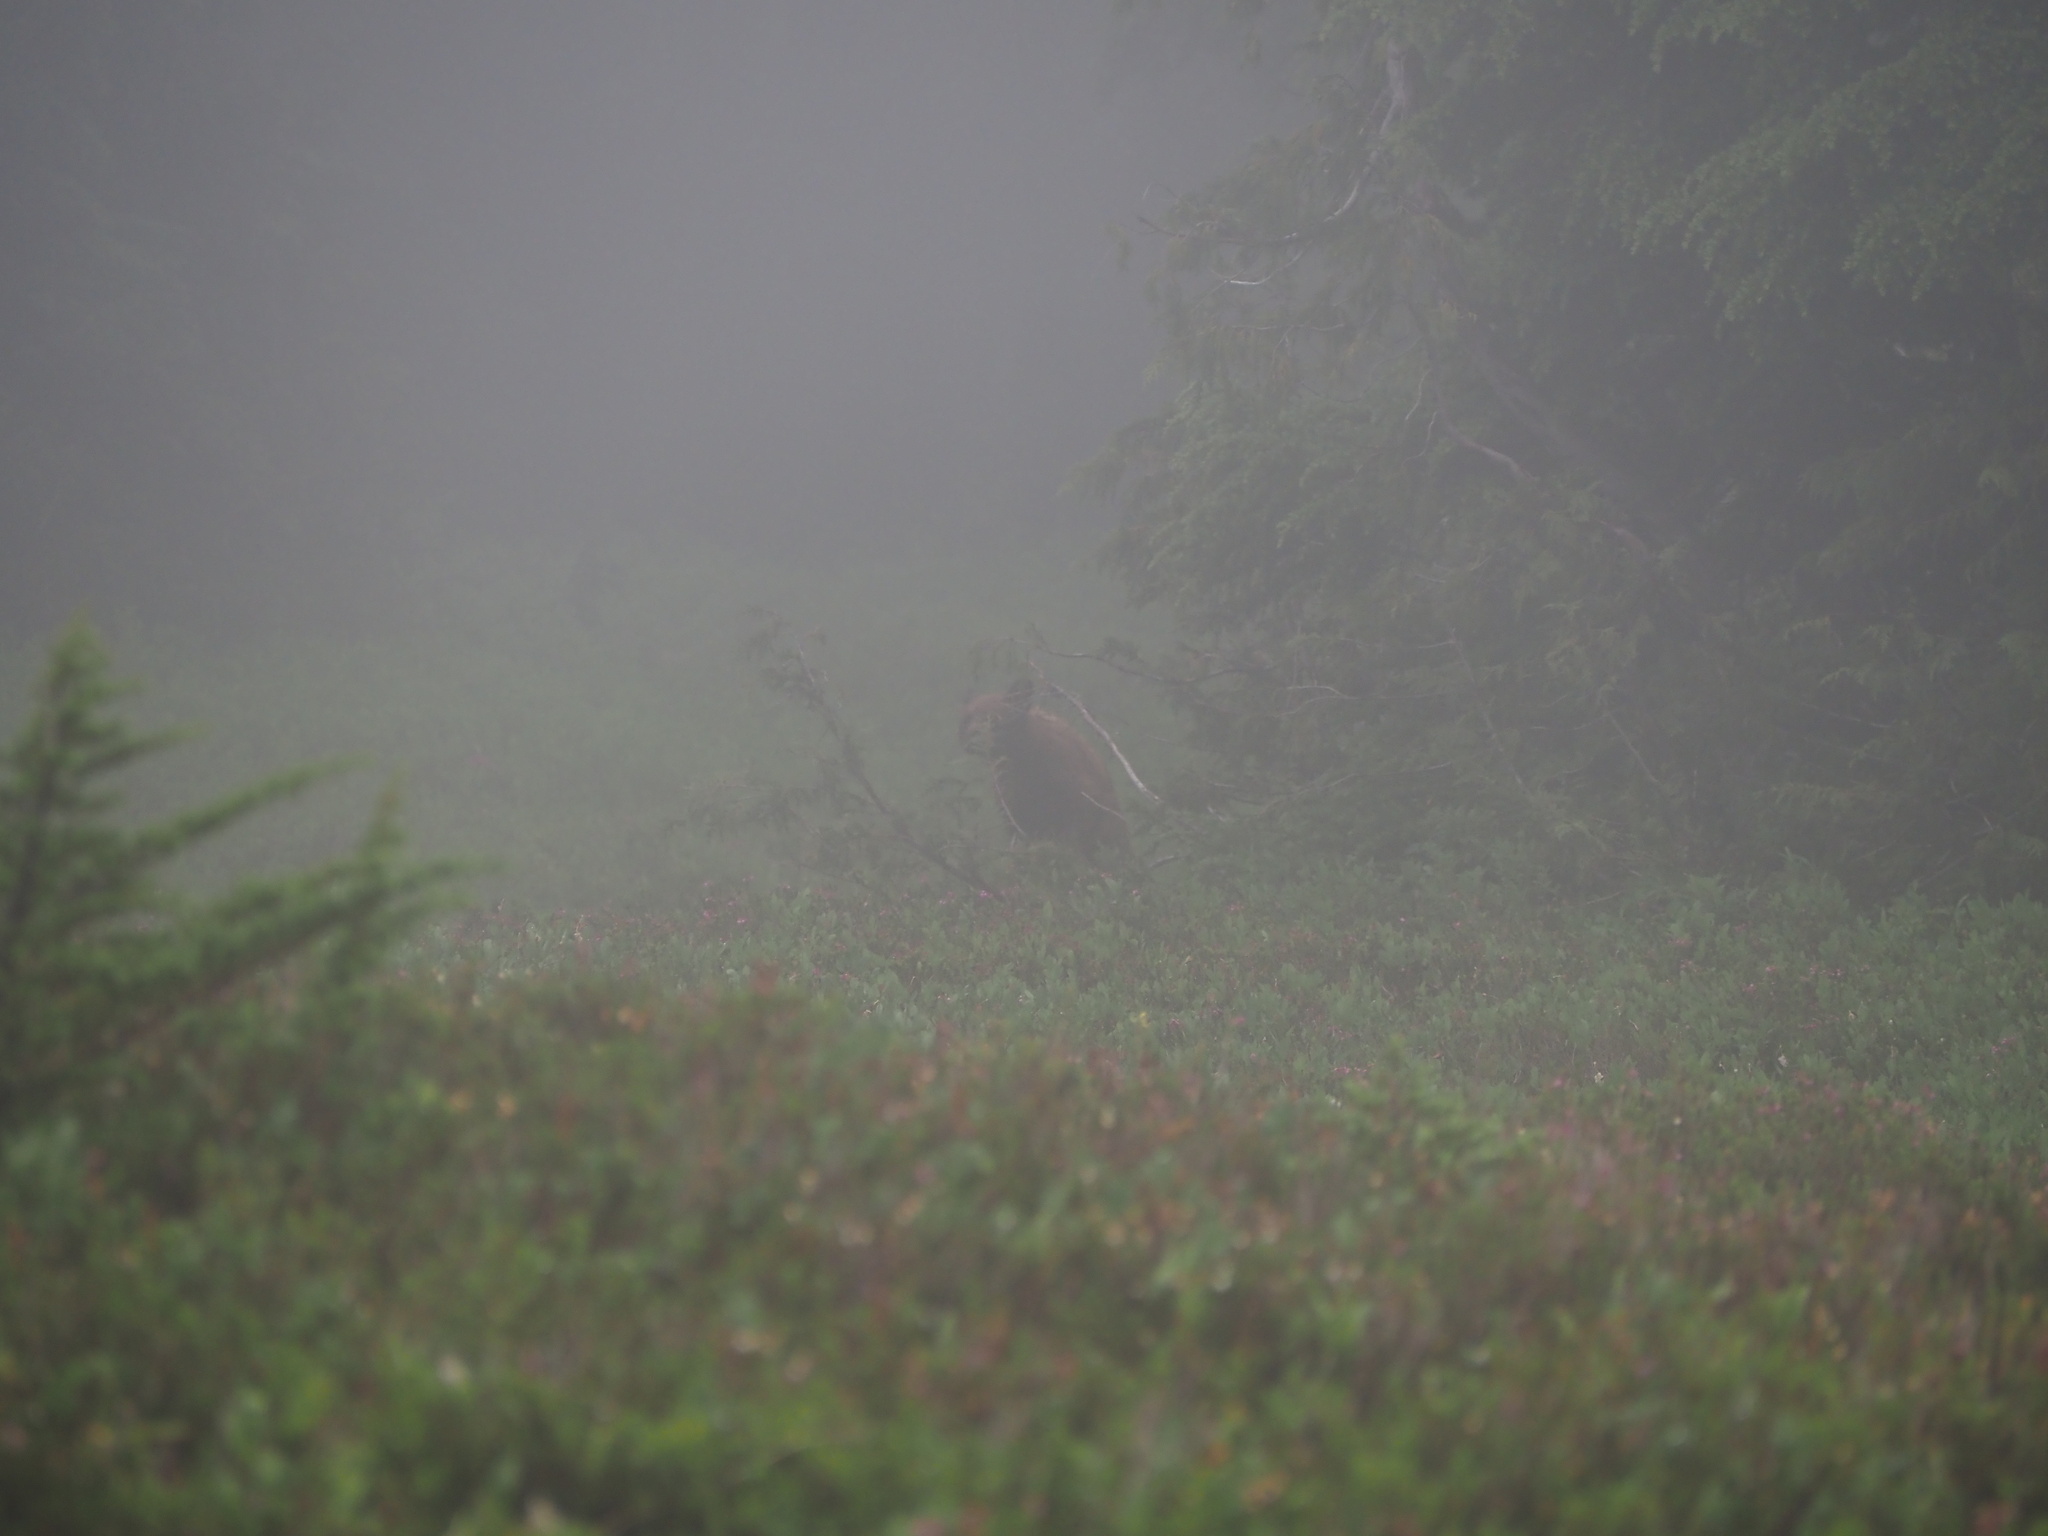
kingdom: Animalia
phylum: Chordata
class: Mammalia
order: Carnivora
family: Ursidae
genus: Ursus
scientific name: Ursus americanus
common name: American black bear
